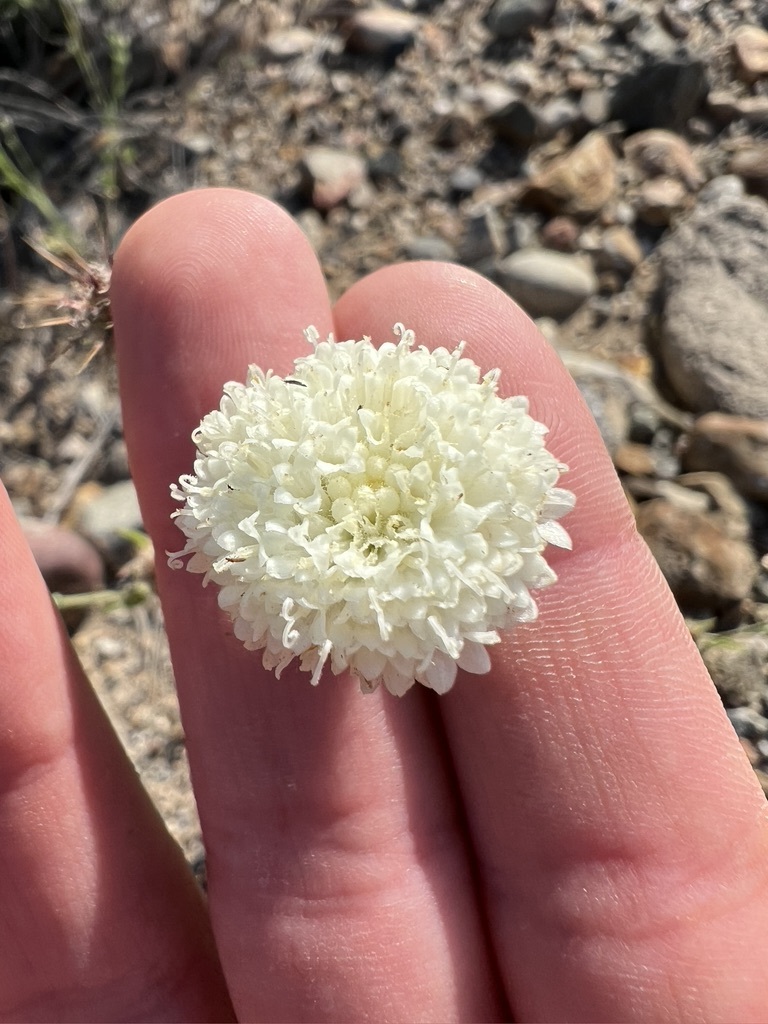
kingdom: Plantae
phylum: Tracheophyta
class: Magnoliopsida
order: Asterales
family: Asteraceae
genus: Chaenactis
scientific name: Chaenactis artemisiifolia
